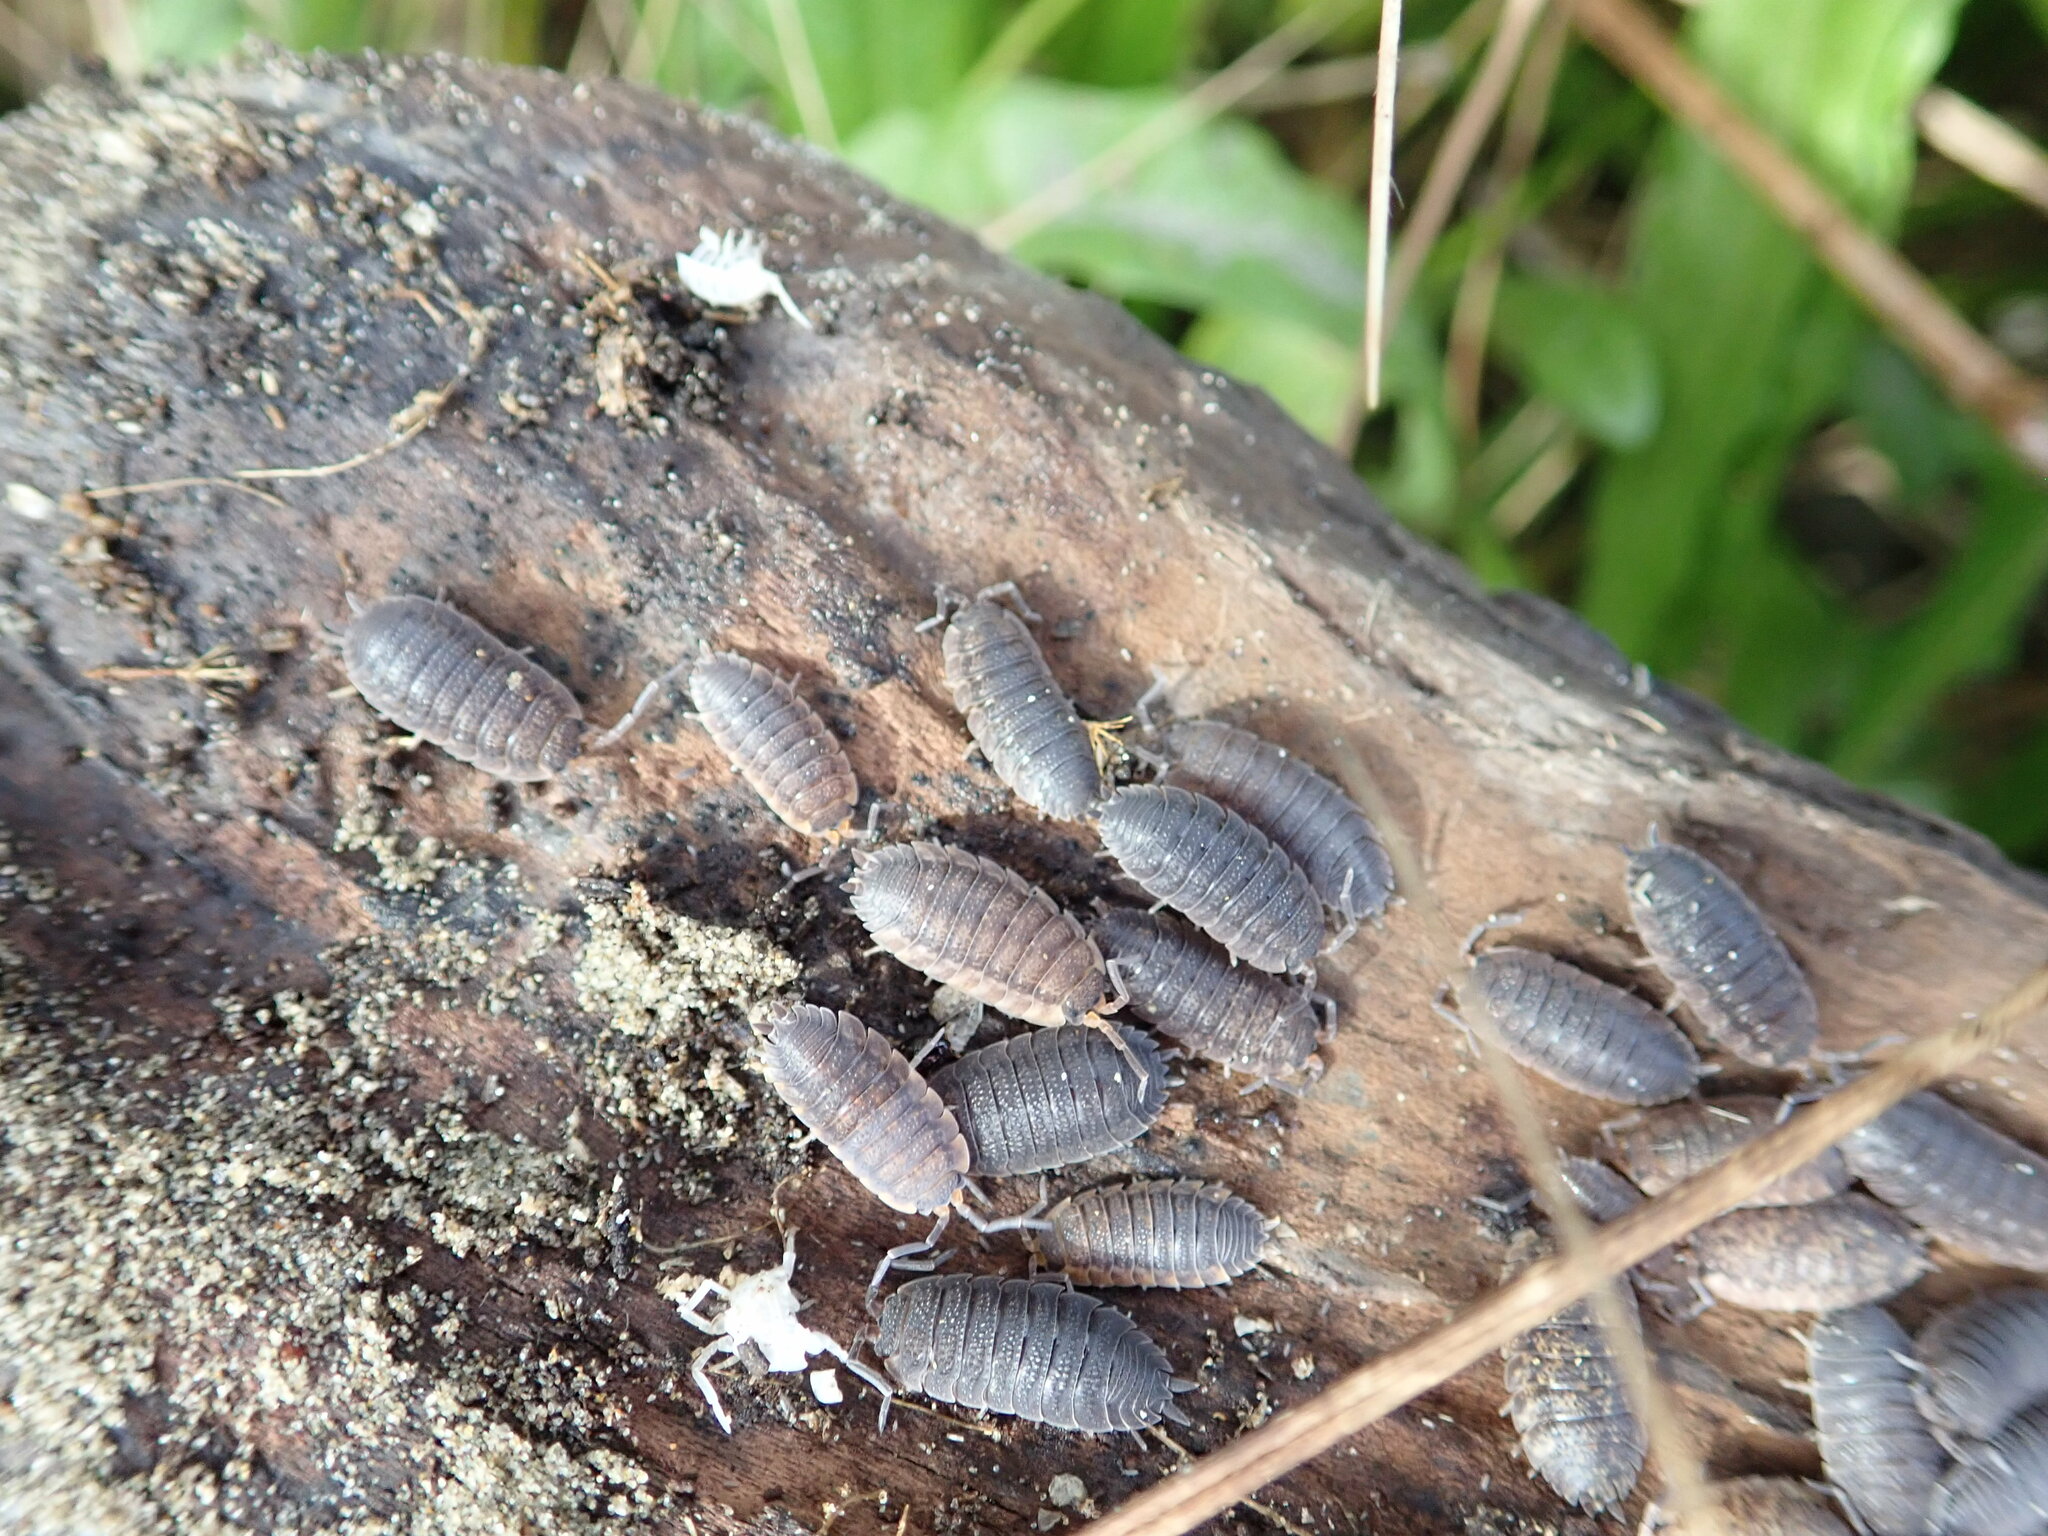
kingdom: Animalia
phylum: Arthropoda
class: Malacostraca
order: Isopoda
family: Porcellionidae
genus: Porcellio
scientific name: Porcellio scaber
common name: Common rough woodlouse
